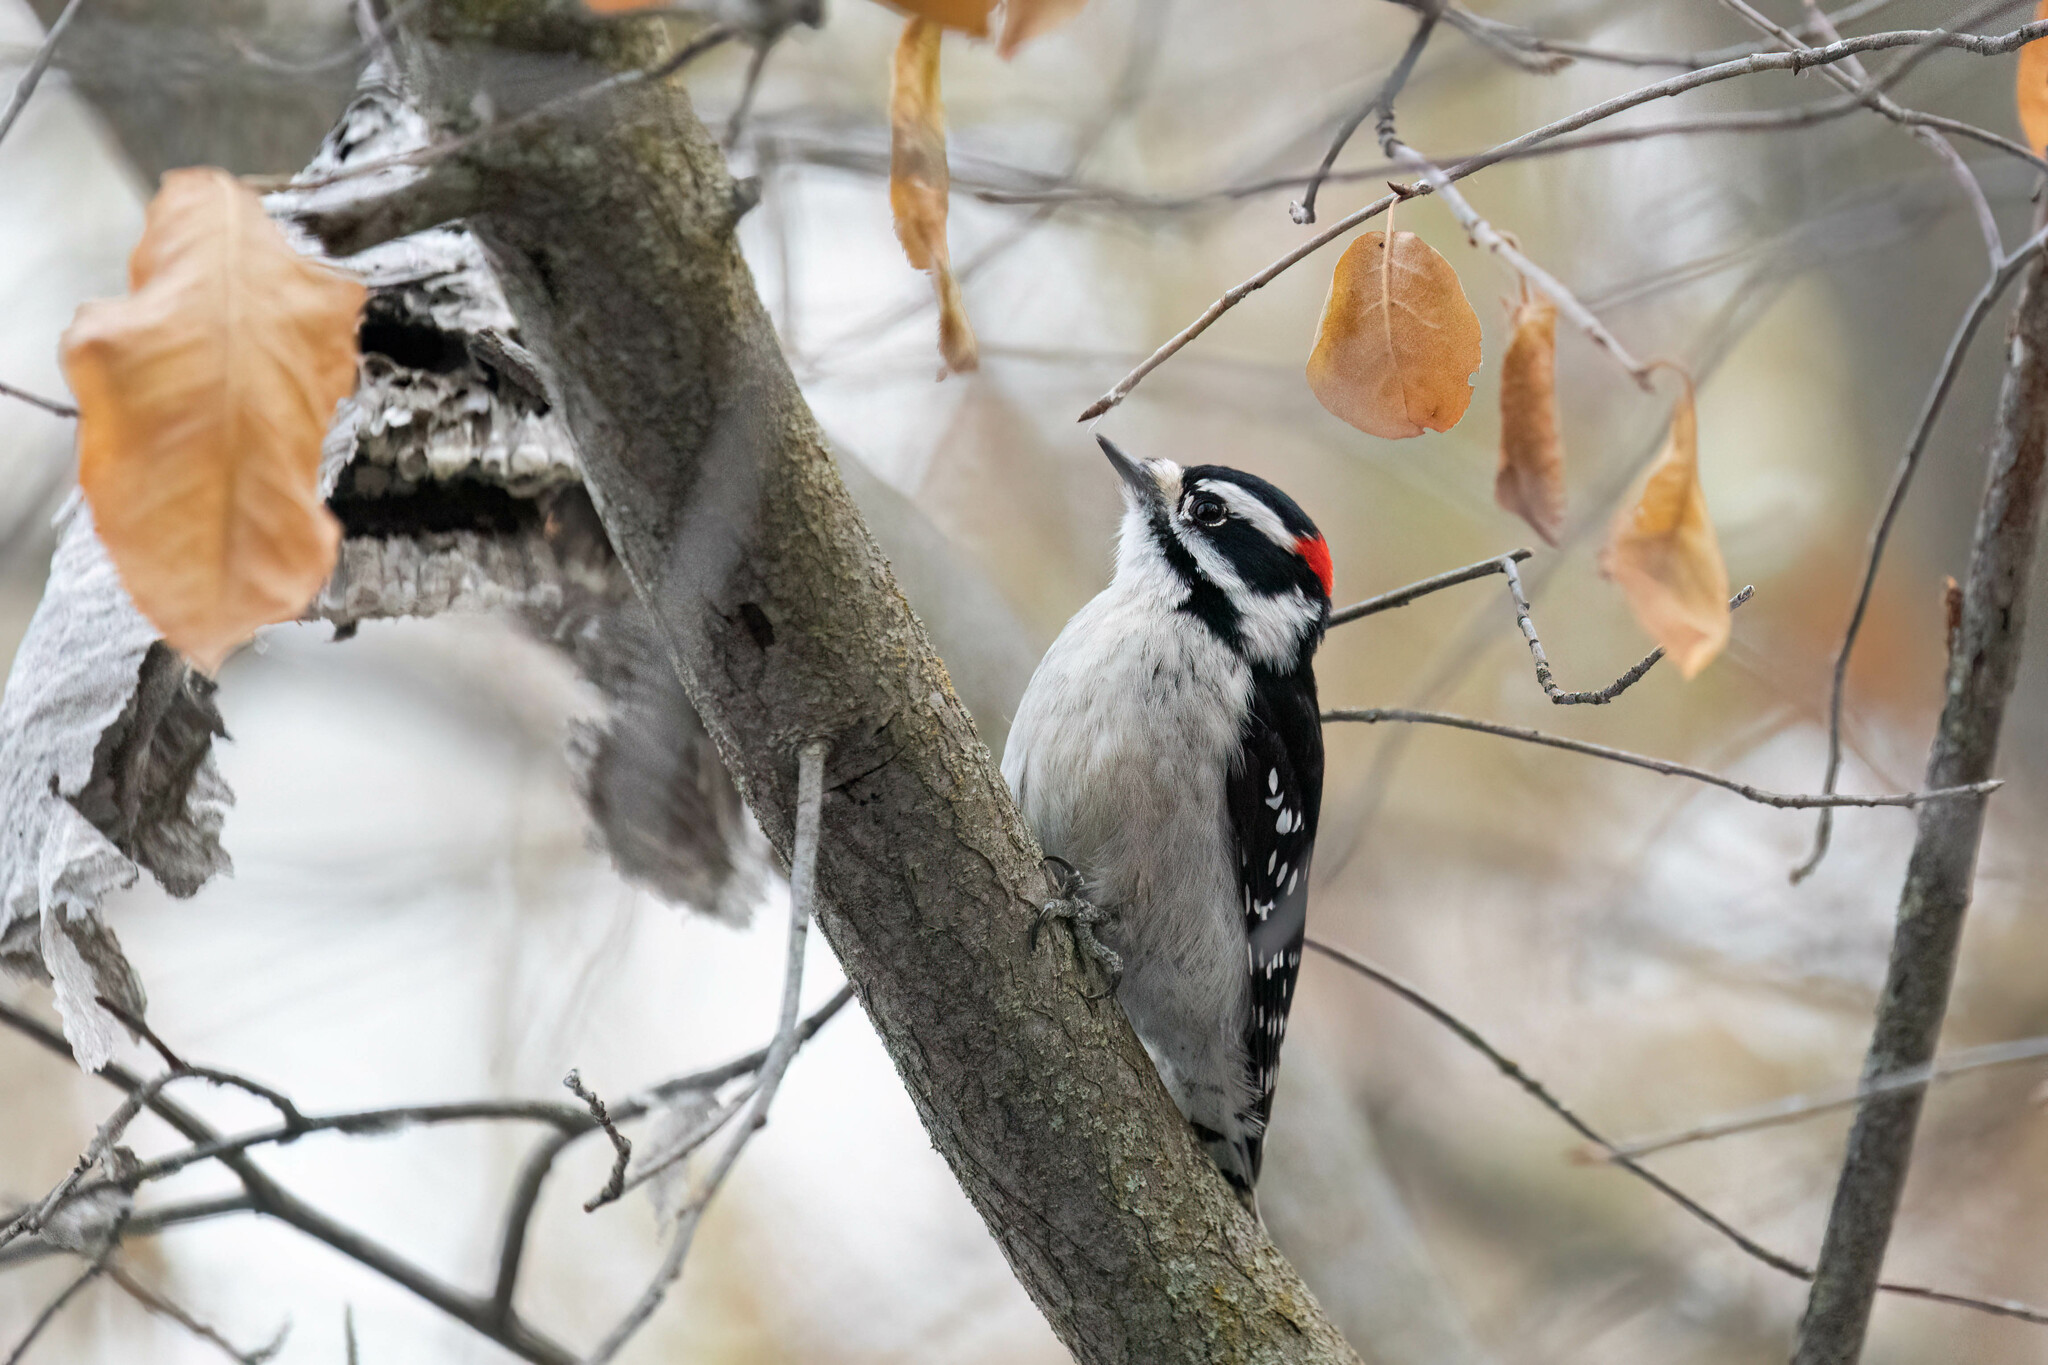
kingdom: Animalia
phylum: Chordata
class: Aves
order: Piciformes
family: Picidae
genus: Dryobates
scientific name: Dryobates pubescens
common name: Downy woodpecker
